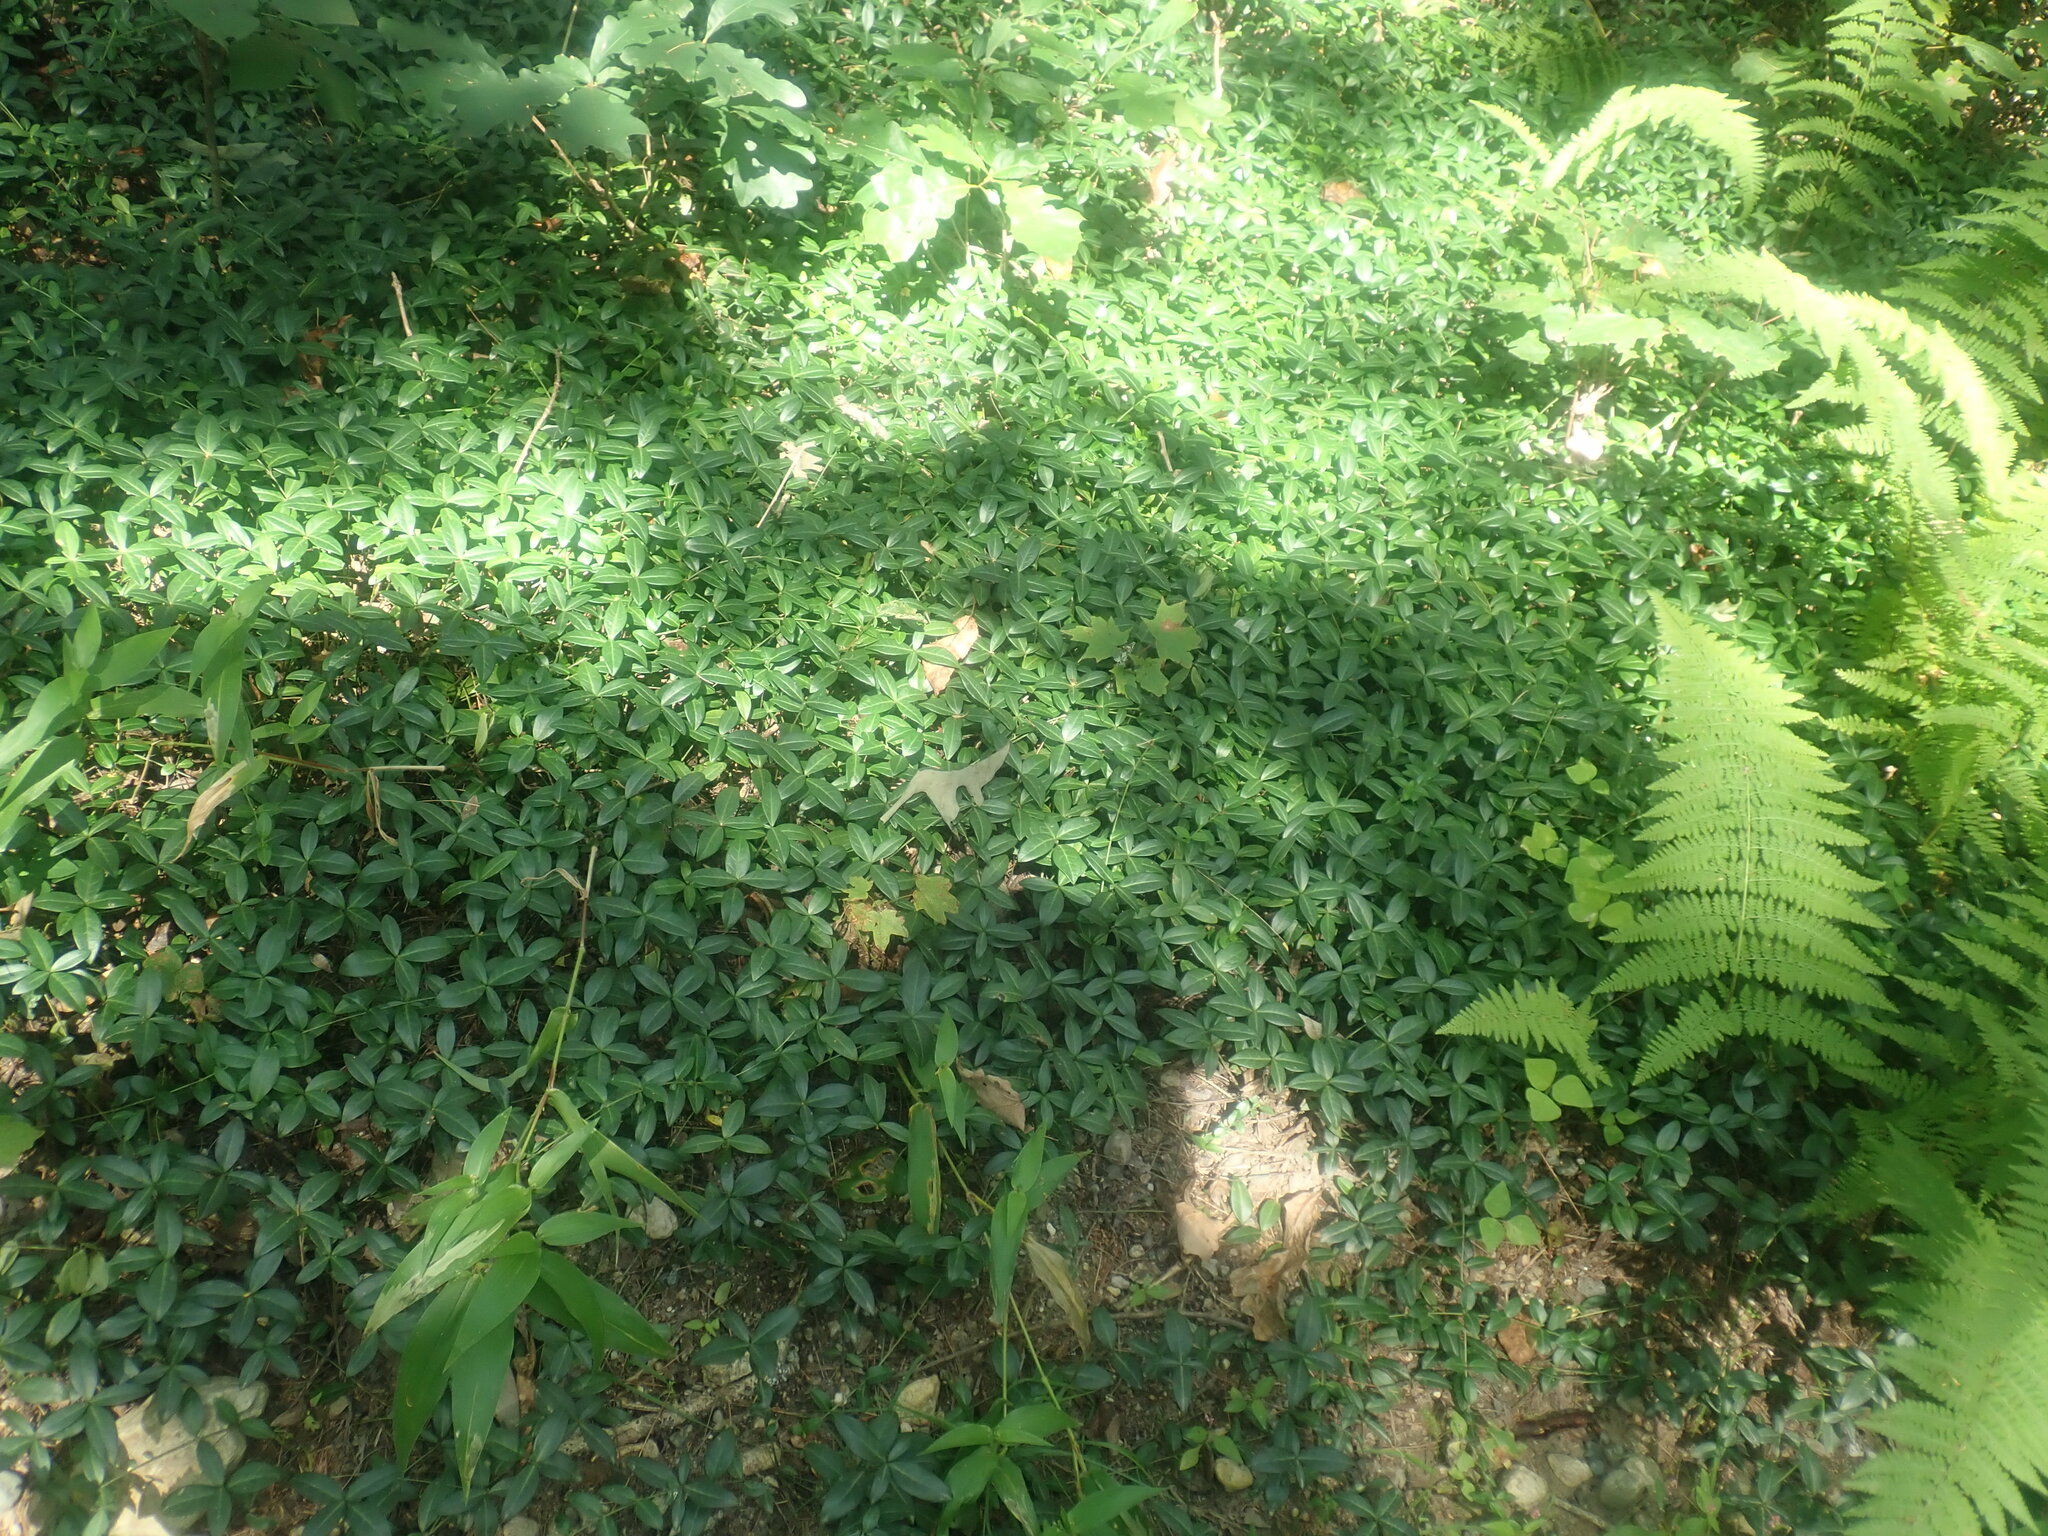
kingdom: Plantae
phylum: Tracheophyta
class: Magnoliopsida
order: Gentianales
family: Apocynaceae
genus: Vinca
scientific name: Vinca minor
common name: Lesser periwinkle
